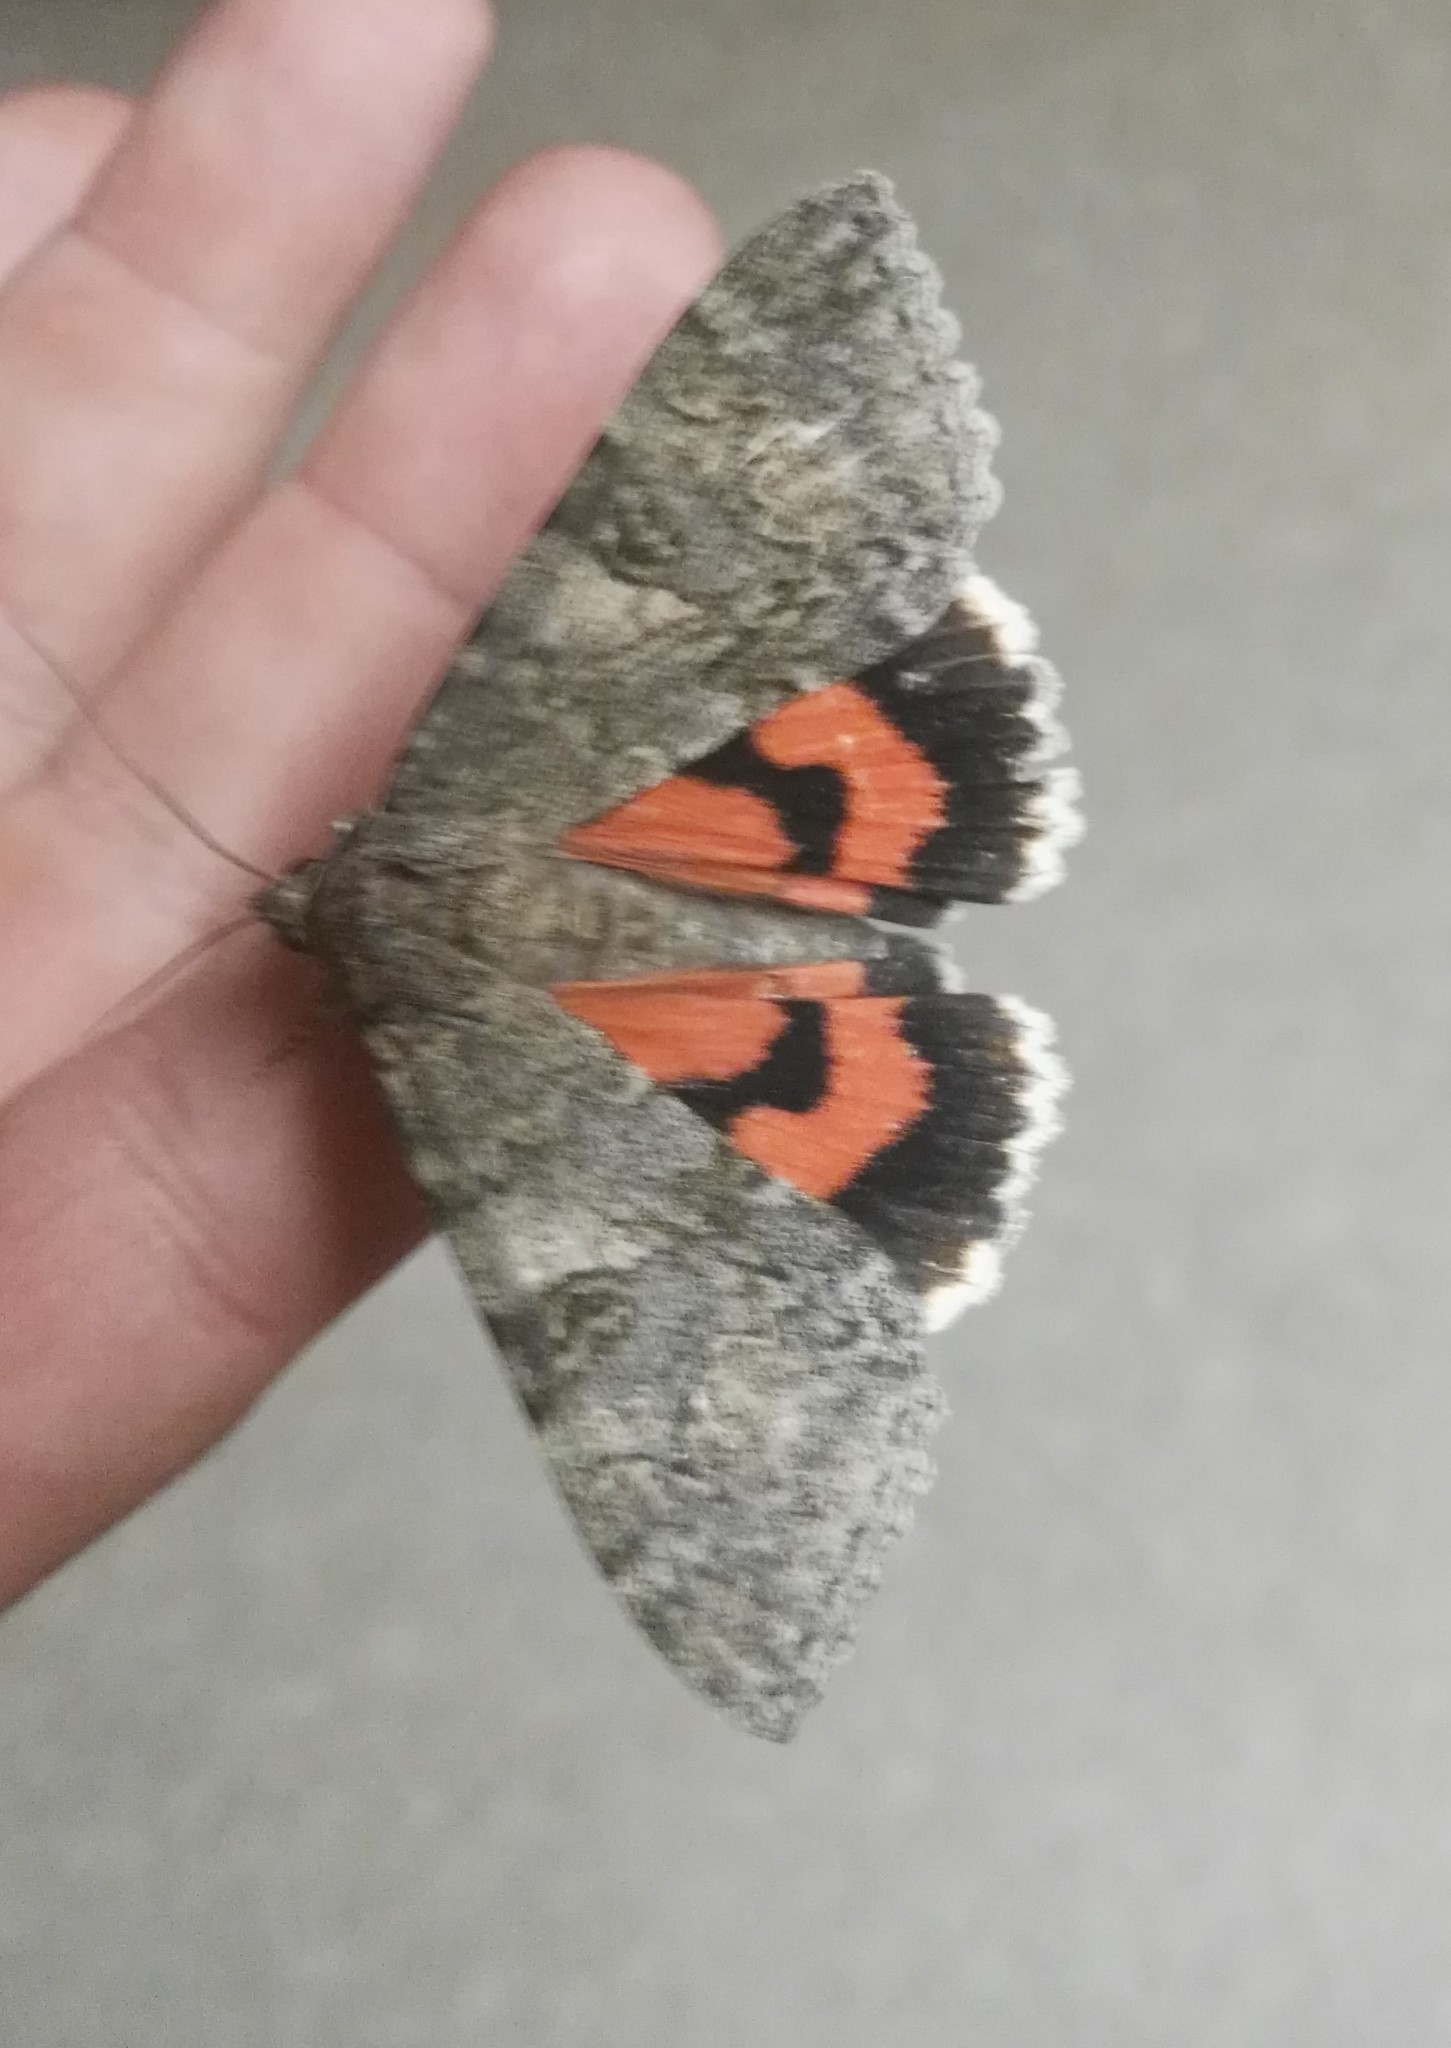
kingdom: Animalia
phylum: Arthropoda
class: Insecta
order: Lepidoptera
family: Erebidae
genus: Catocala
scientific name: Catocala nupta
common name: Red underwing
